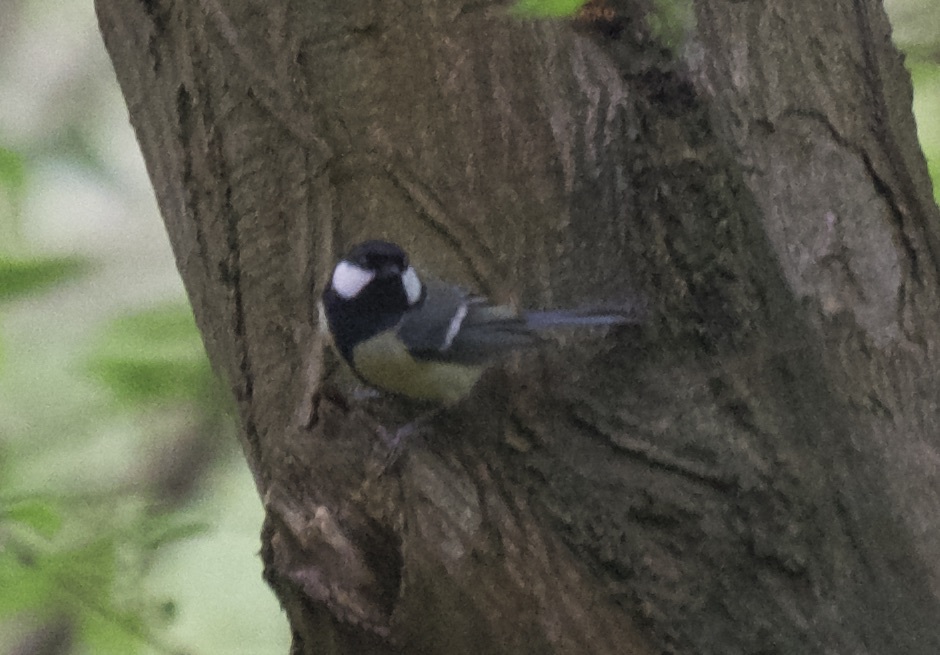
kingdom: Animalia
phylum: Chordata
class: Aves
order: Passeriformes
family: Paridae
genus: Parus
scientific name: Parus major
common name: Great tit
